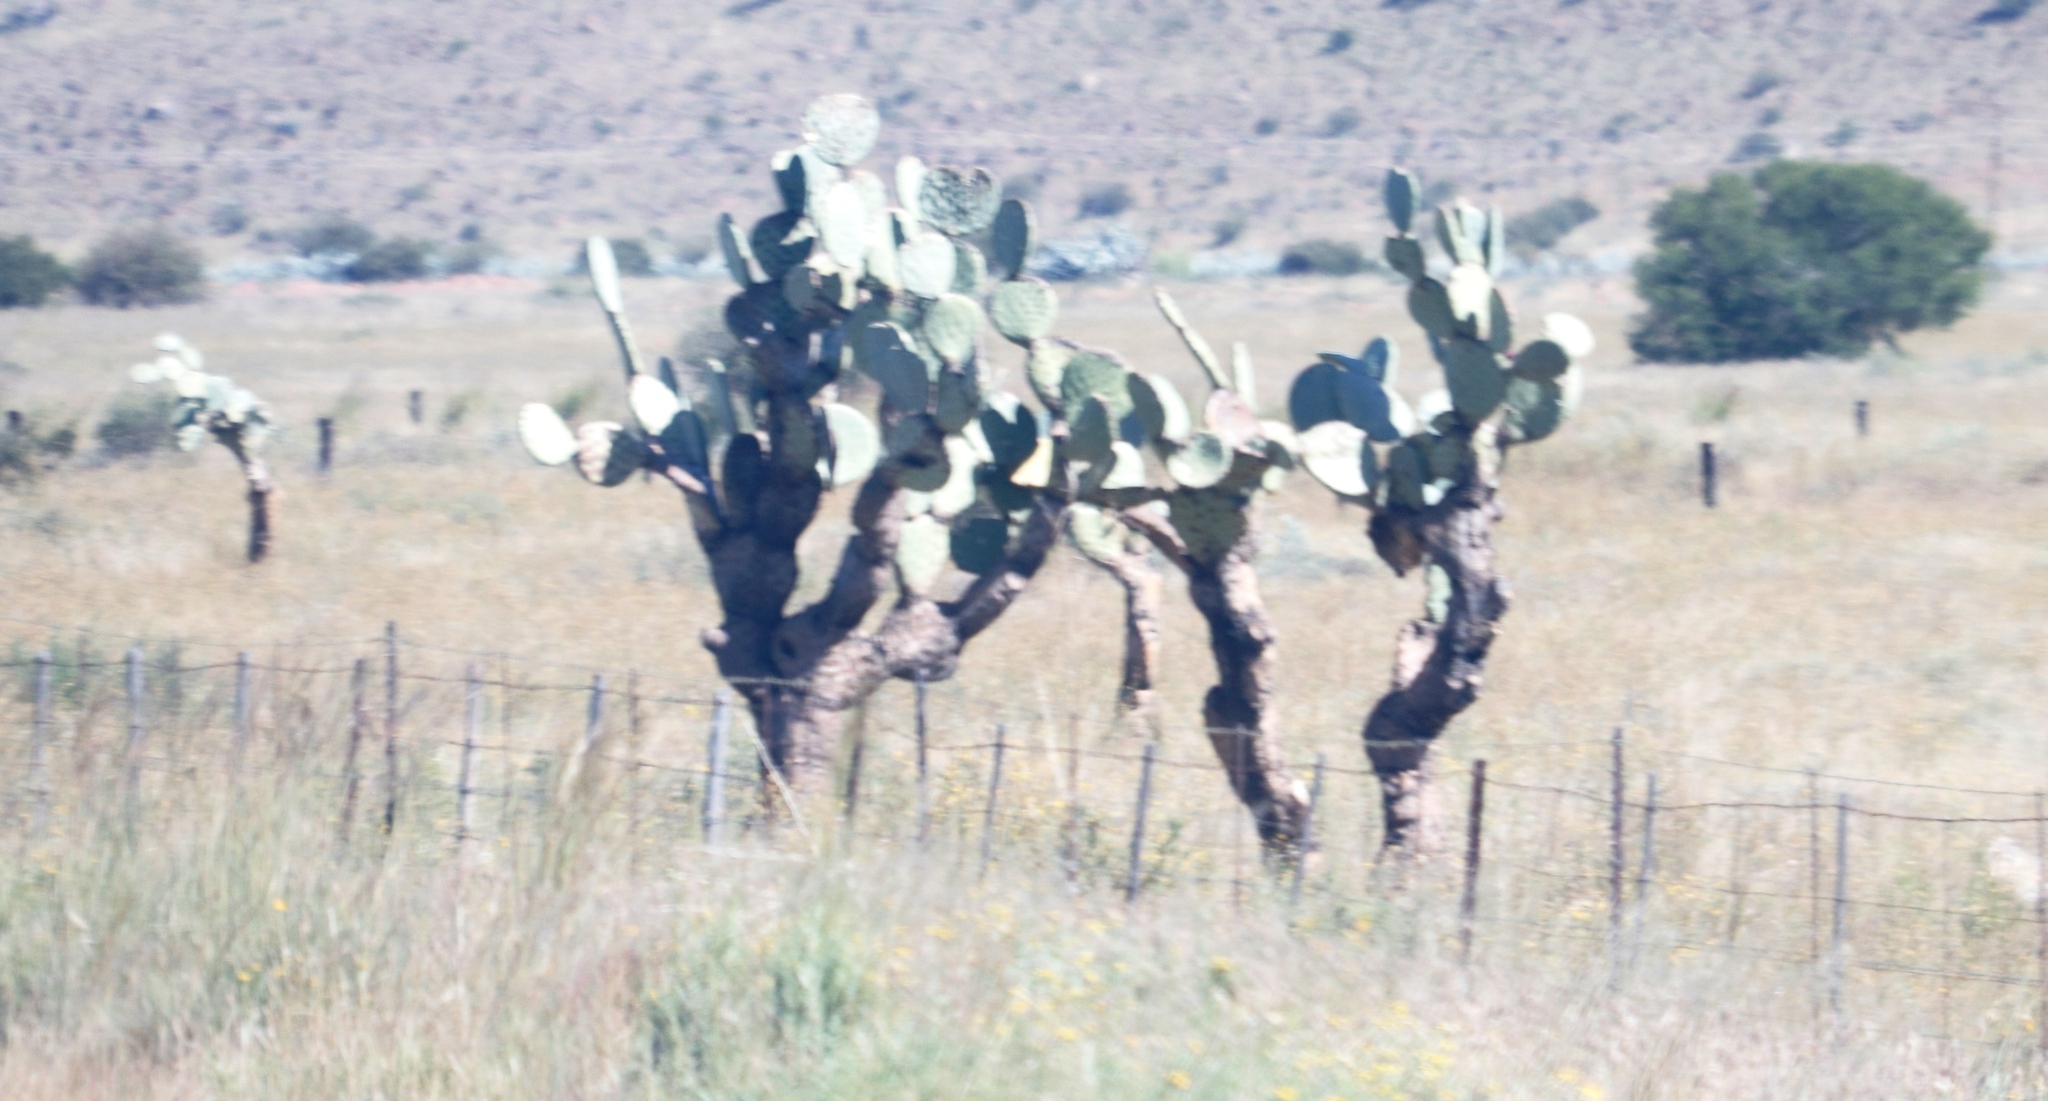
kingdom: Plantae
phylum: Tracheophyta
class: Magnoliopsida
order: Caryophyllales
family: Cactaceae
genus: Opuntia
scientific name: Opuntia robusta
